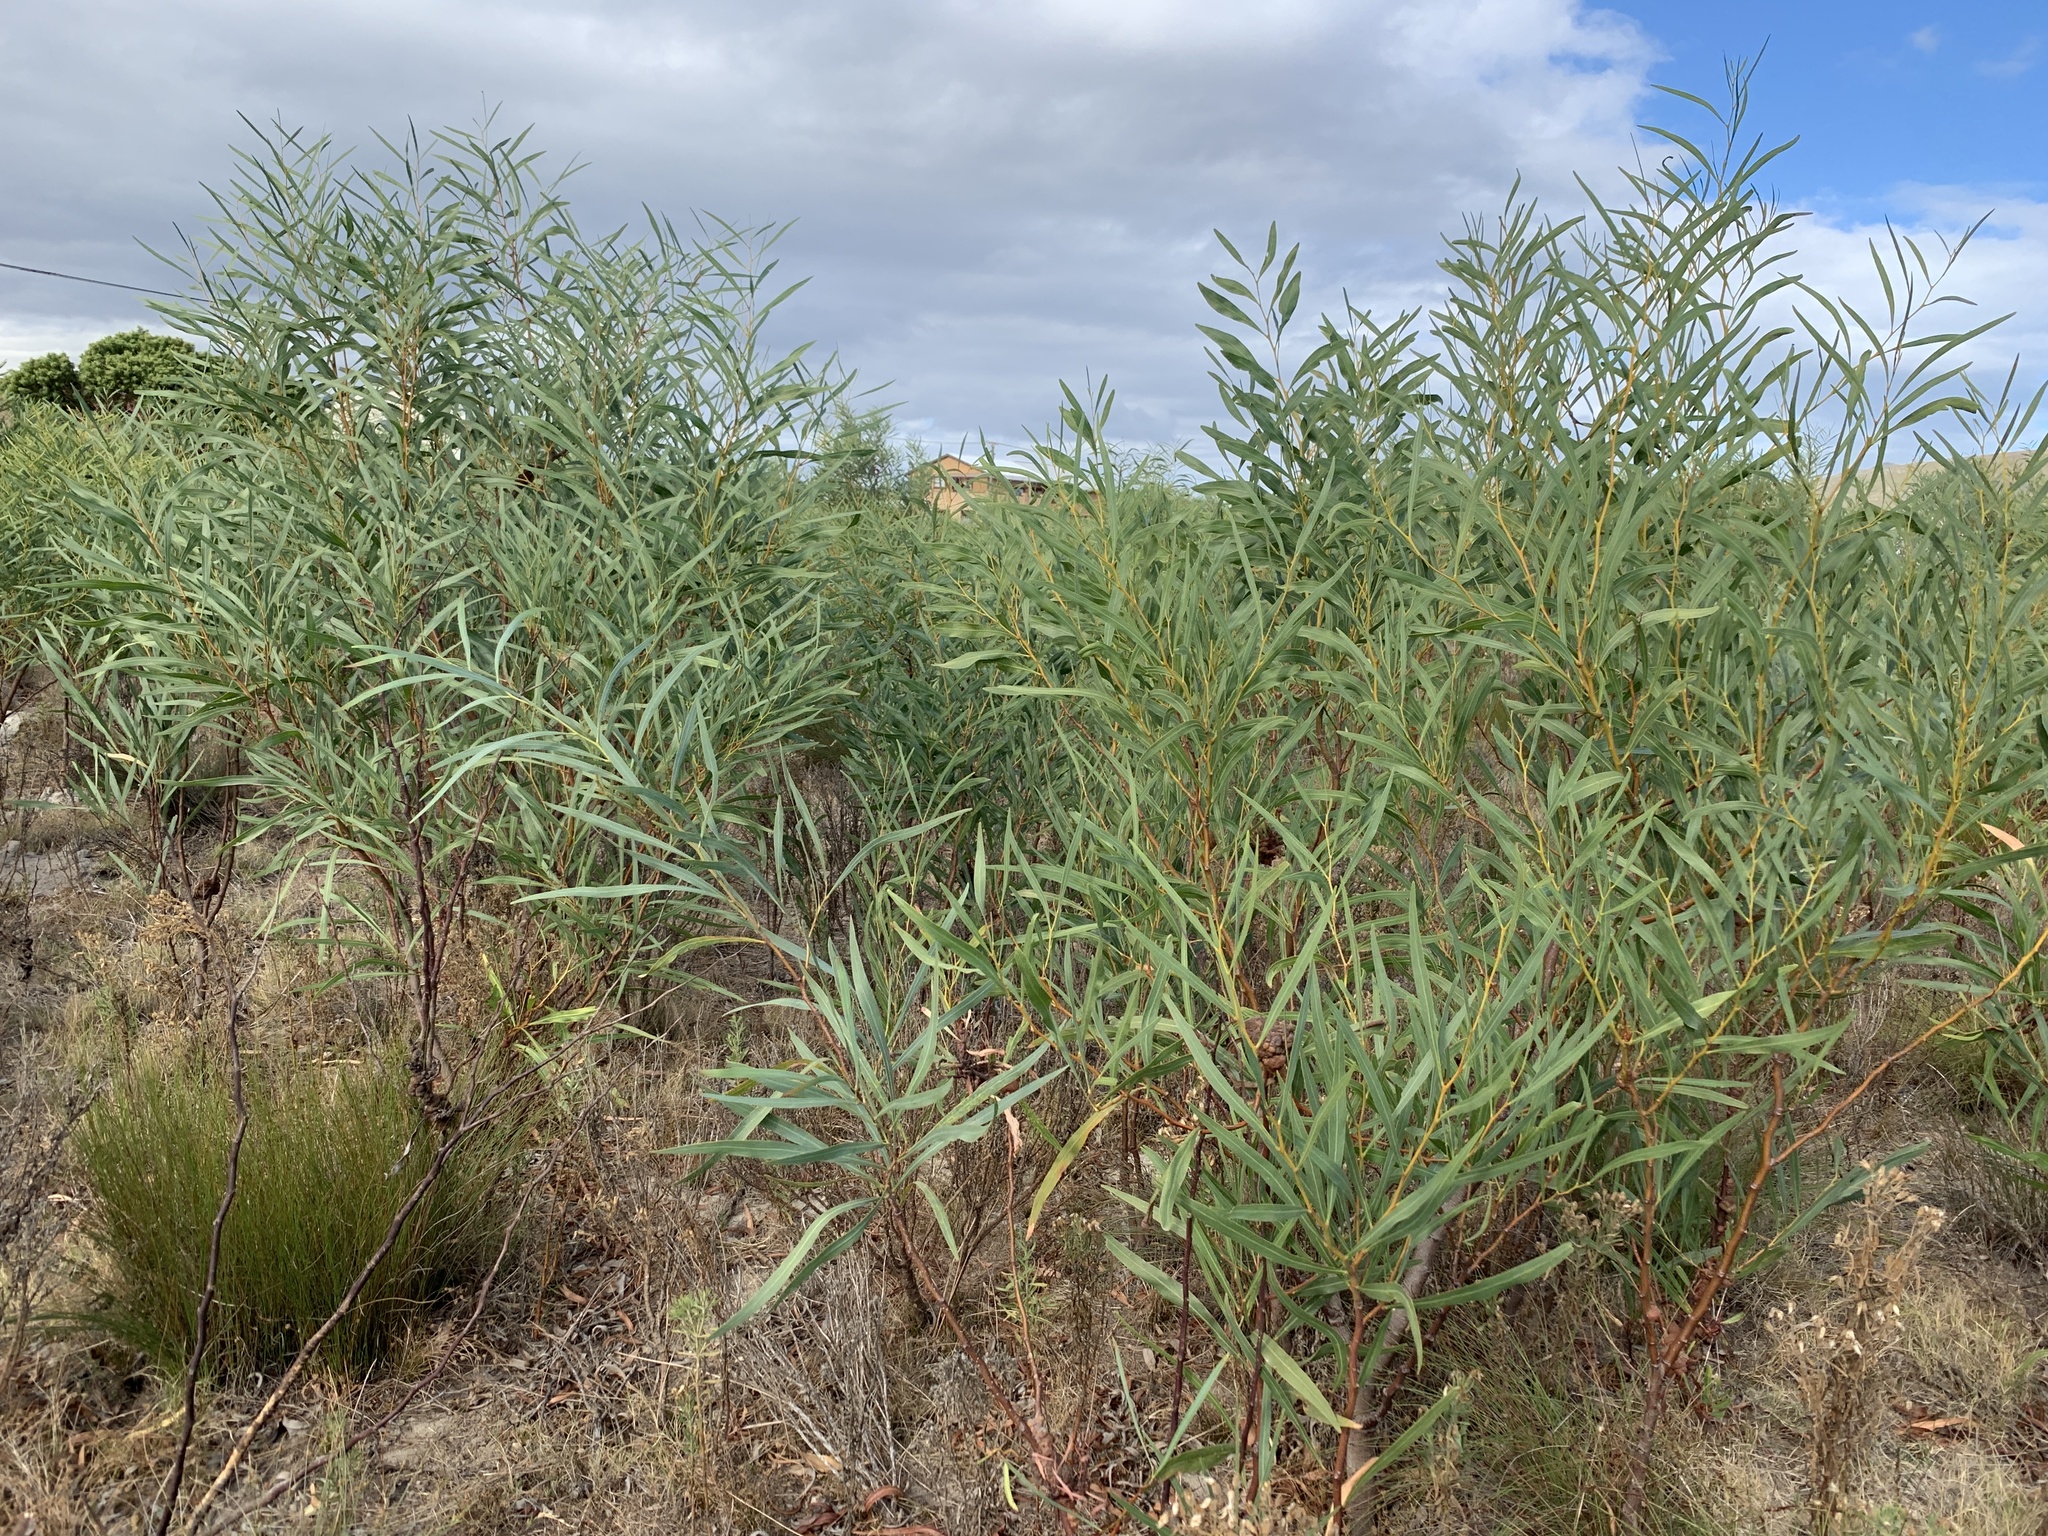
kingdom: Plantae
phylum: Tracheophyta
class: Magnoliopsida
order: Fabales
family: Fabaceae
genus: Acacia
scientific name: Acacia saligna
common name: Orange wattle
